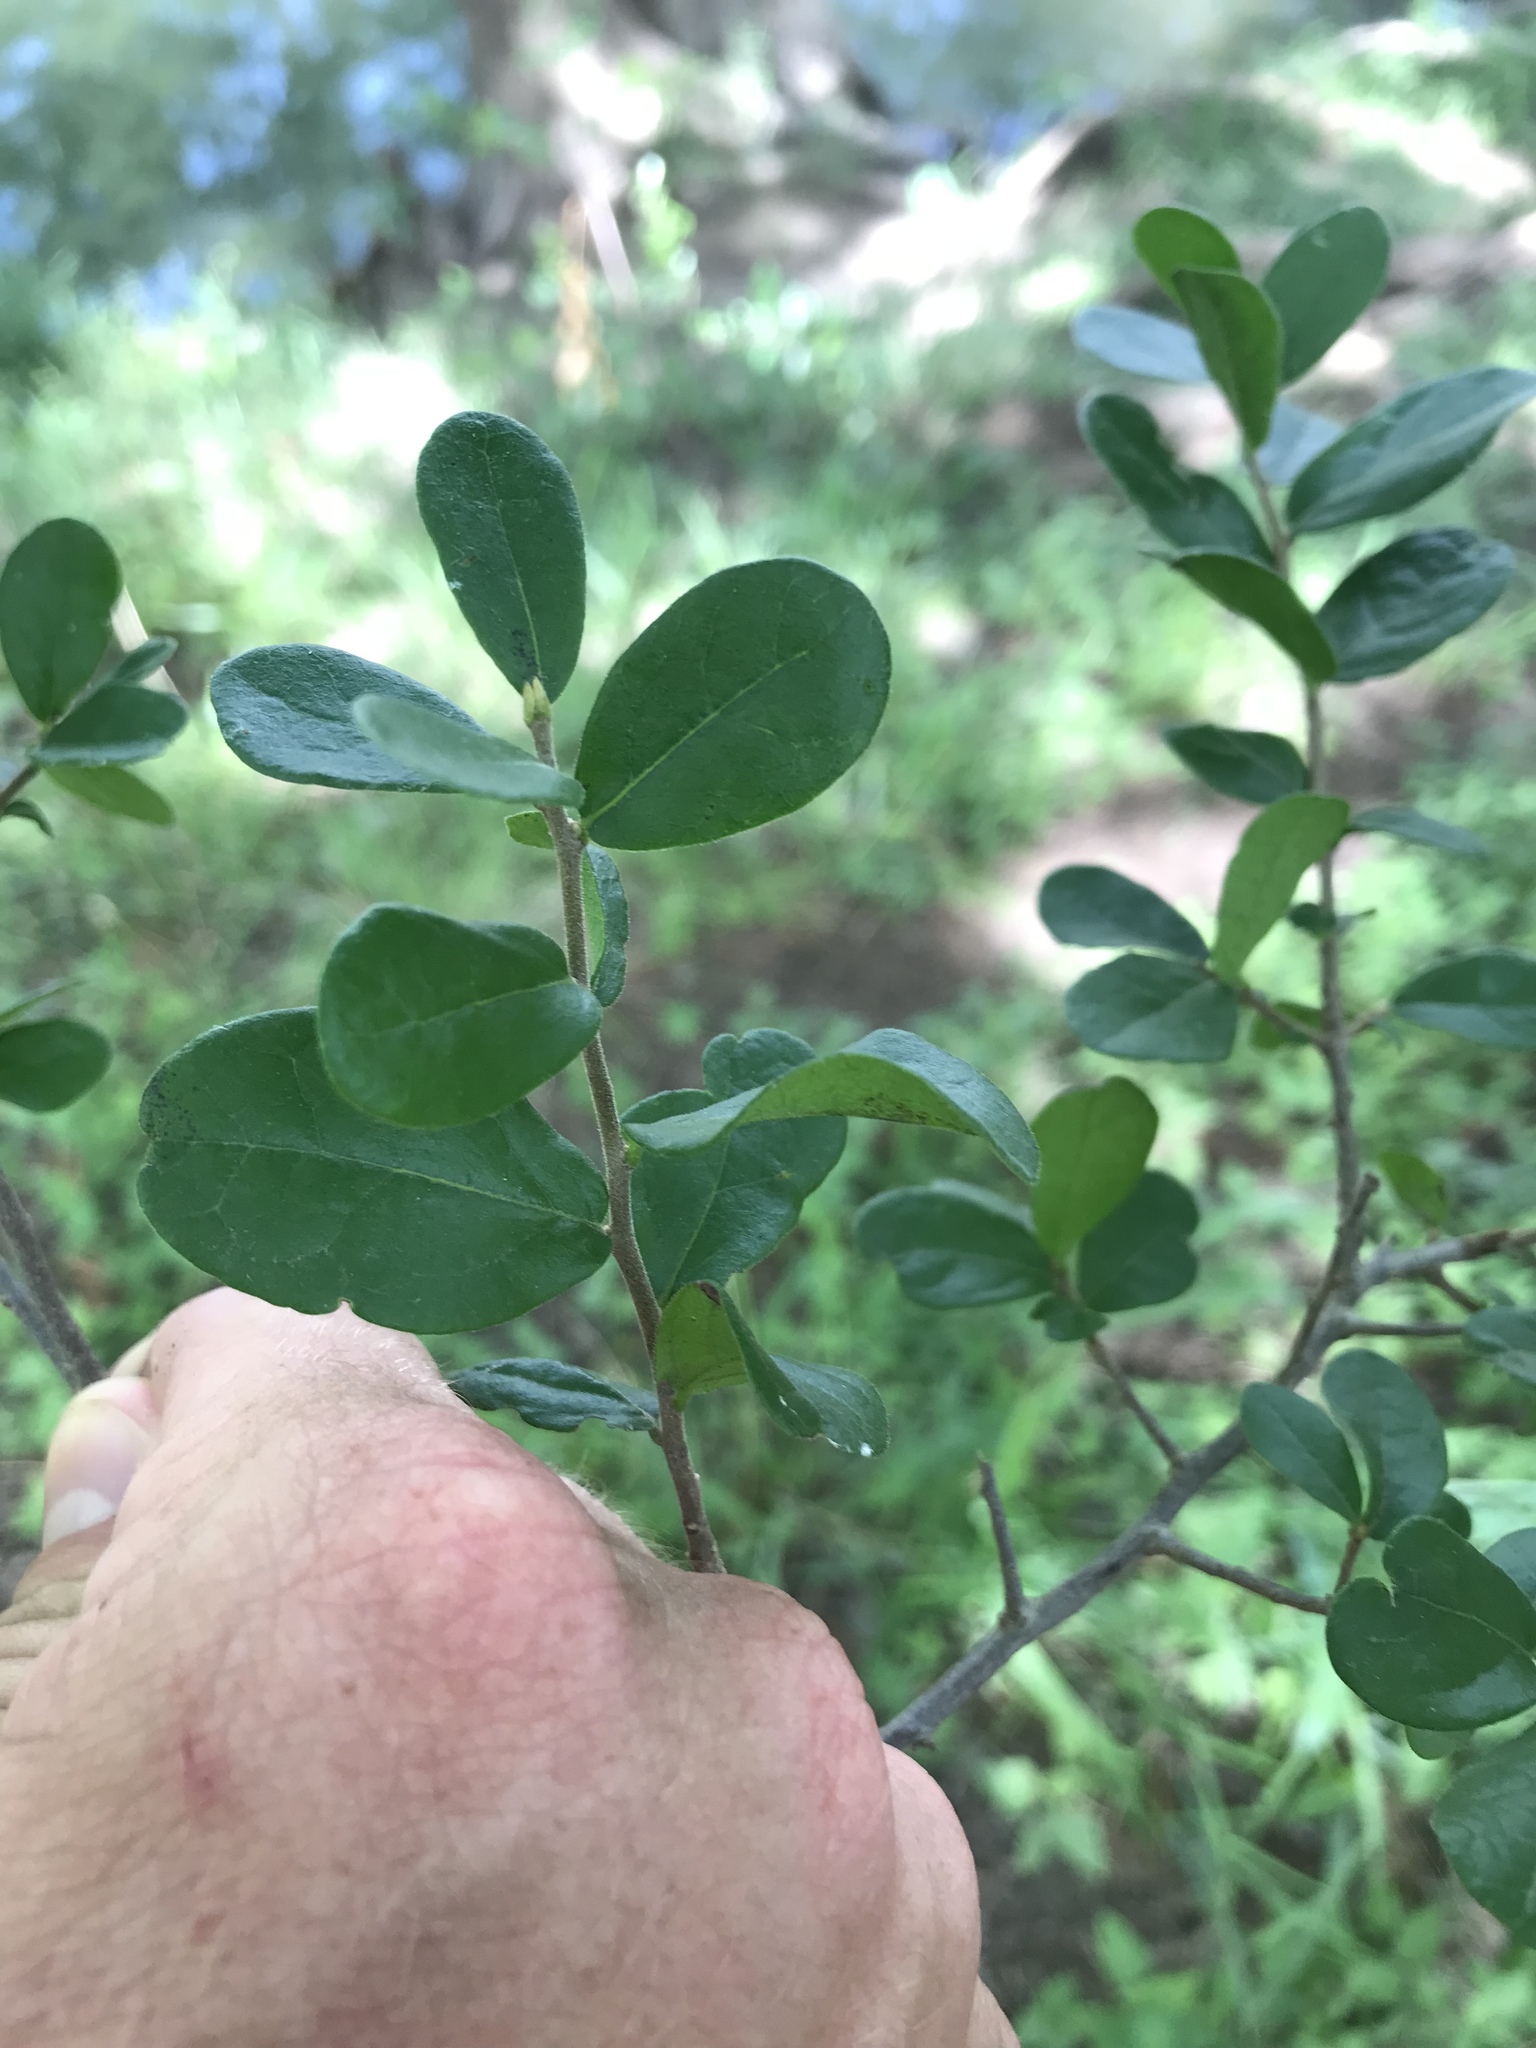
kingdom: Plantae
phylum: Tracheophyta
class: Magnoliopsida
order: Ericales
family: Ebenaceae
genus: Diospyros
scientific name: Diospyros texana
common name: Texas persimmon
